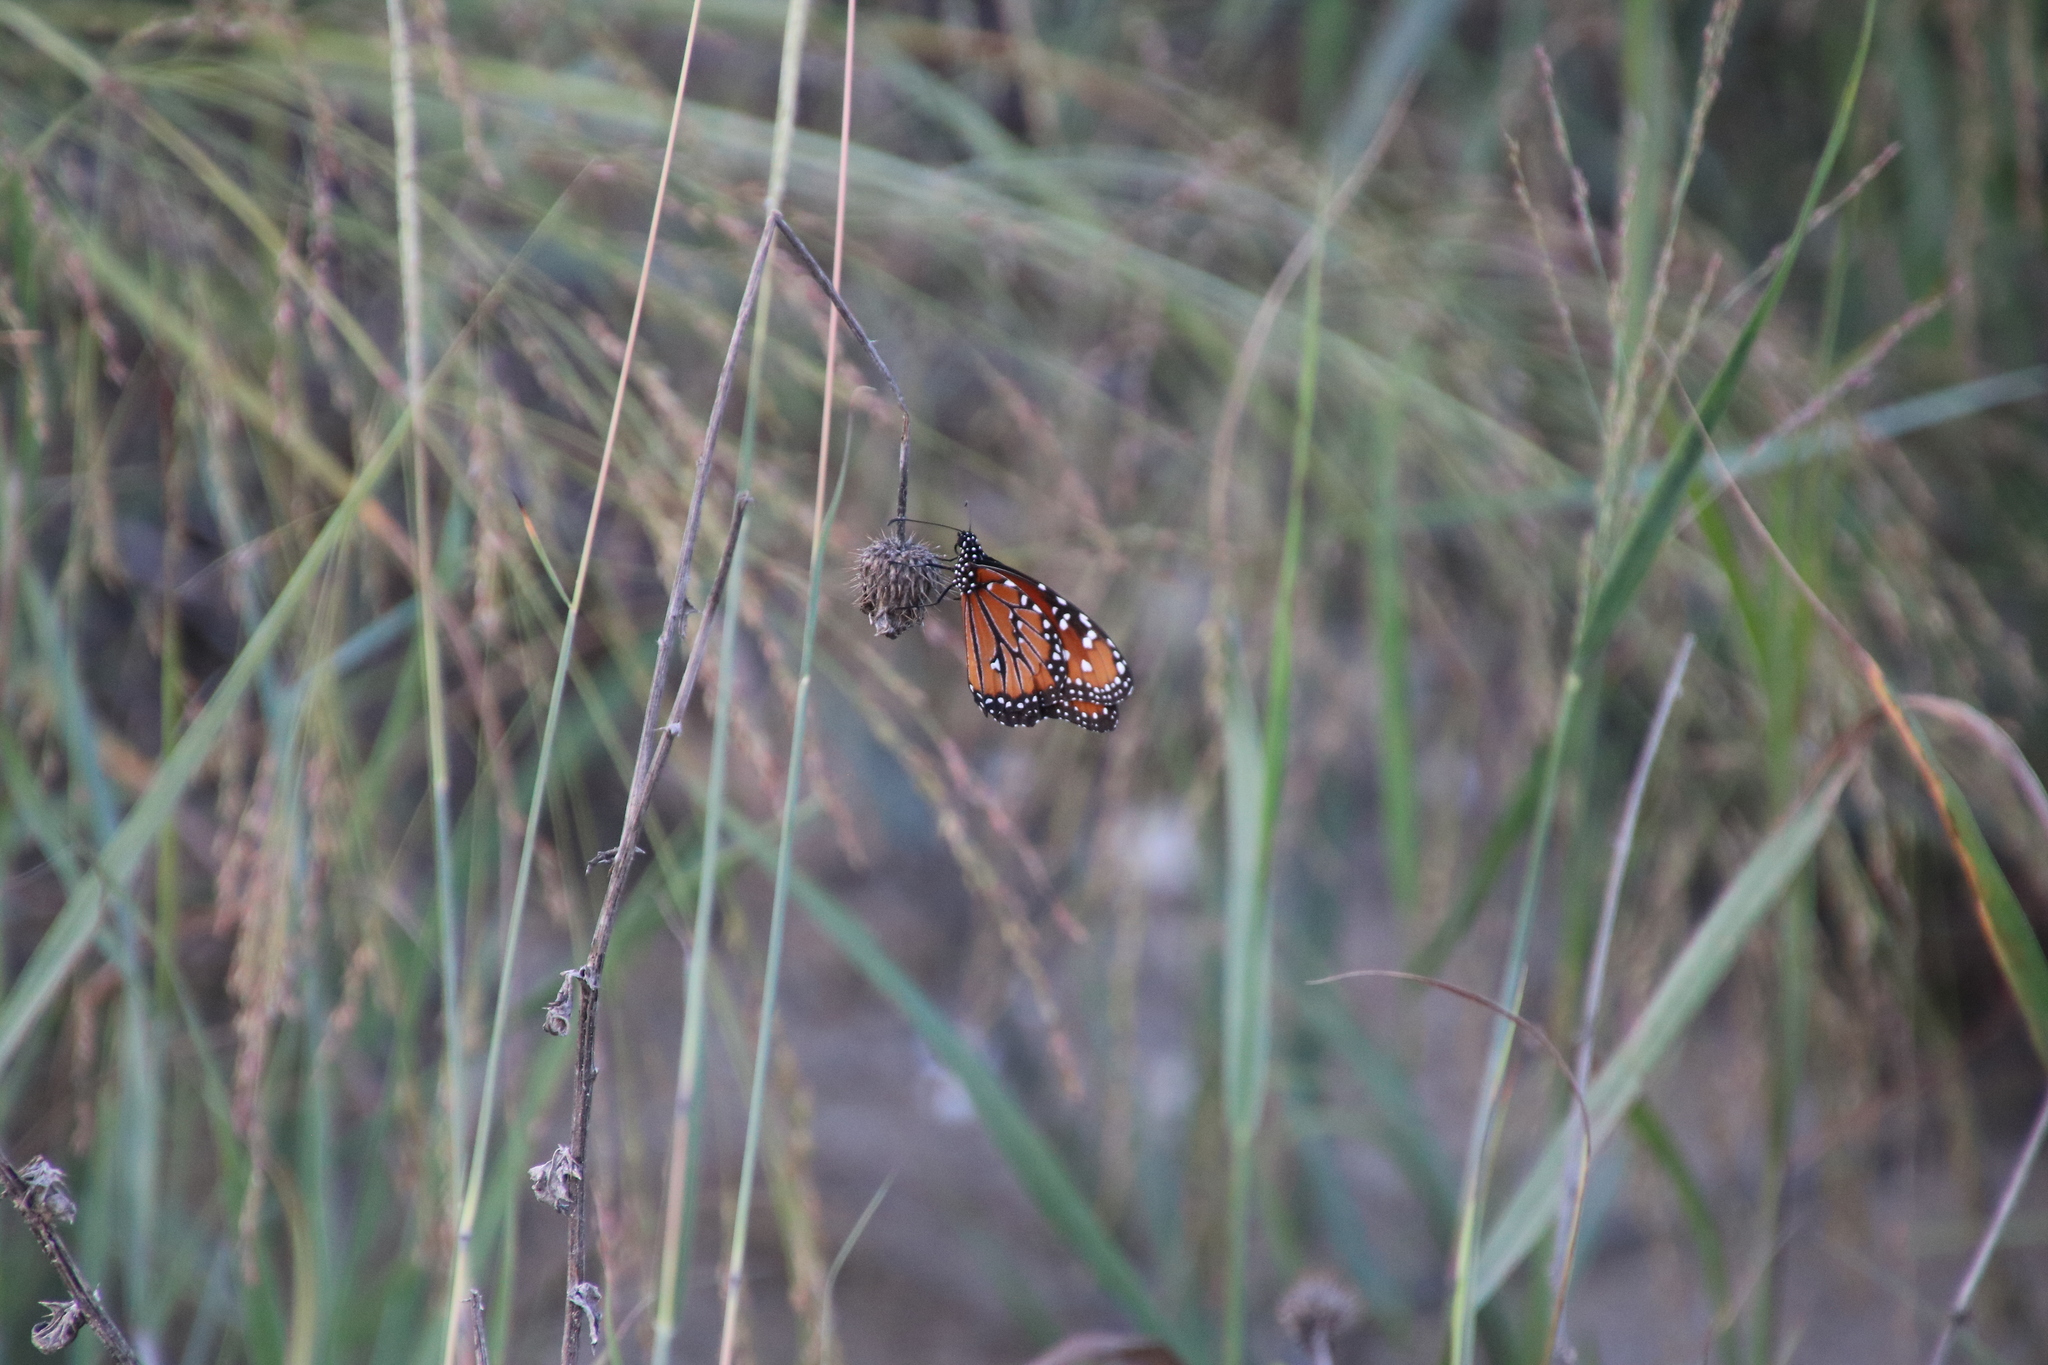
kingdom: Animalia
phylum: Arthropoda
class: Insecta
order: Lepidoptera
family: Nymphalidae
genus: Danaus
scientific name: Danaus gilippus
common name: Queen
